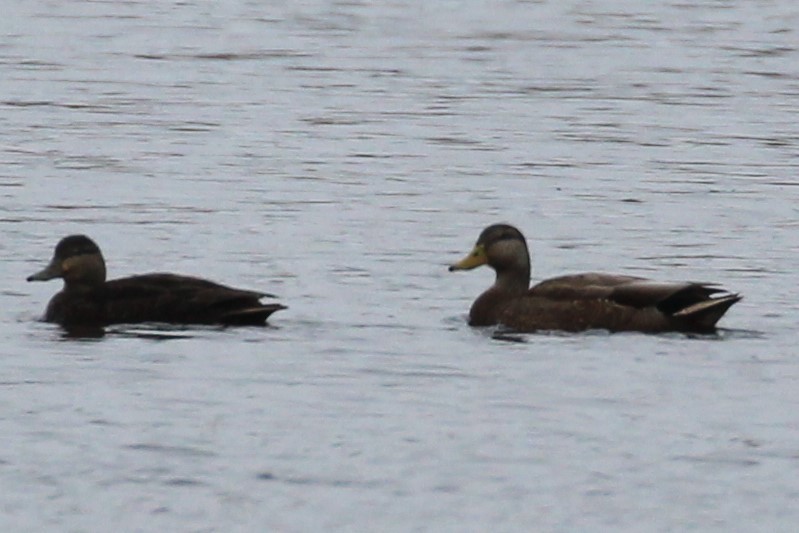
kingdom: Animalia
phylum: Chordata
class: Aves
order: Anseriformes
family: Anatidae
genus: Anas
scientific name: Anas rubripes
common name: American black duck
